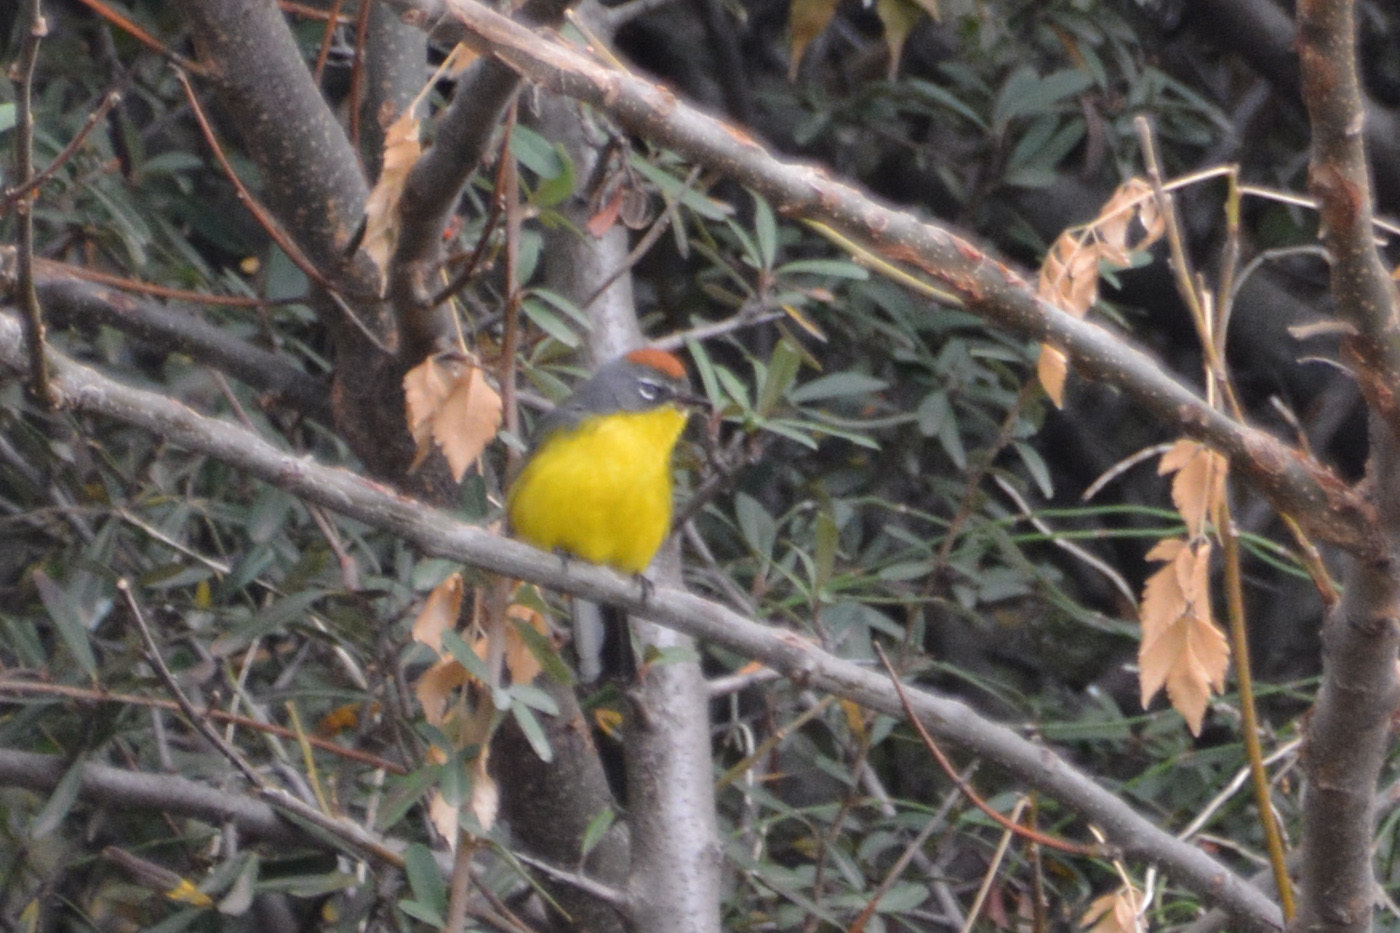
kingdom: Animalia
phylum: Chordata
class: Aves
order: Passeriformes
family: Parulidae
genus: Myioborus
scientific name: Myioborus brunniceps
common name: Brown-capped whitestart
